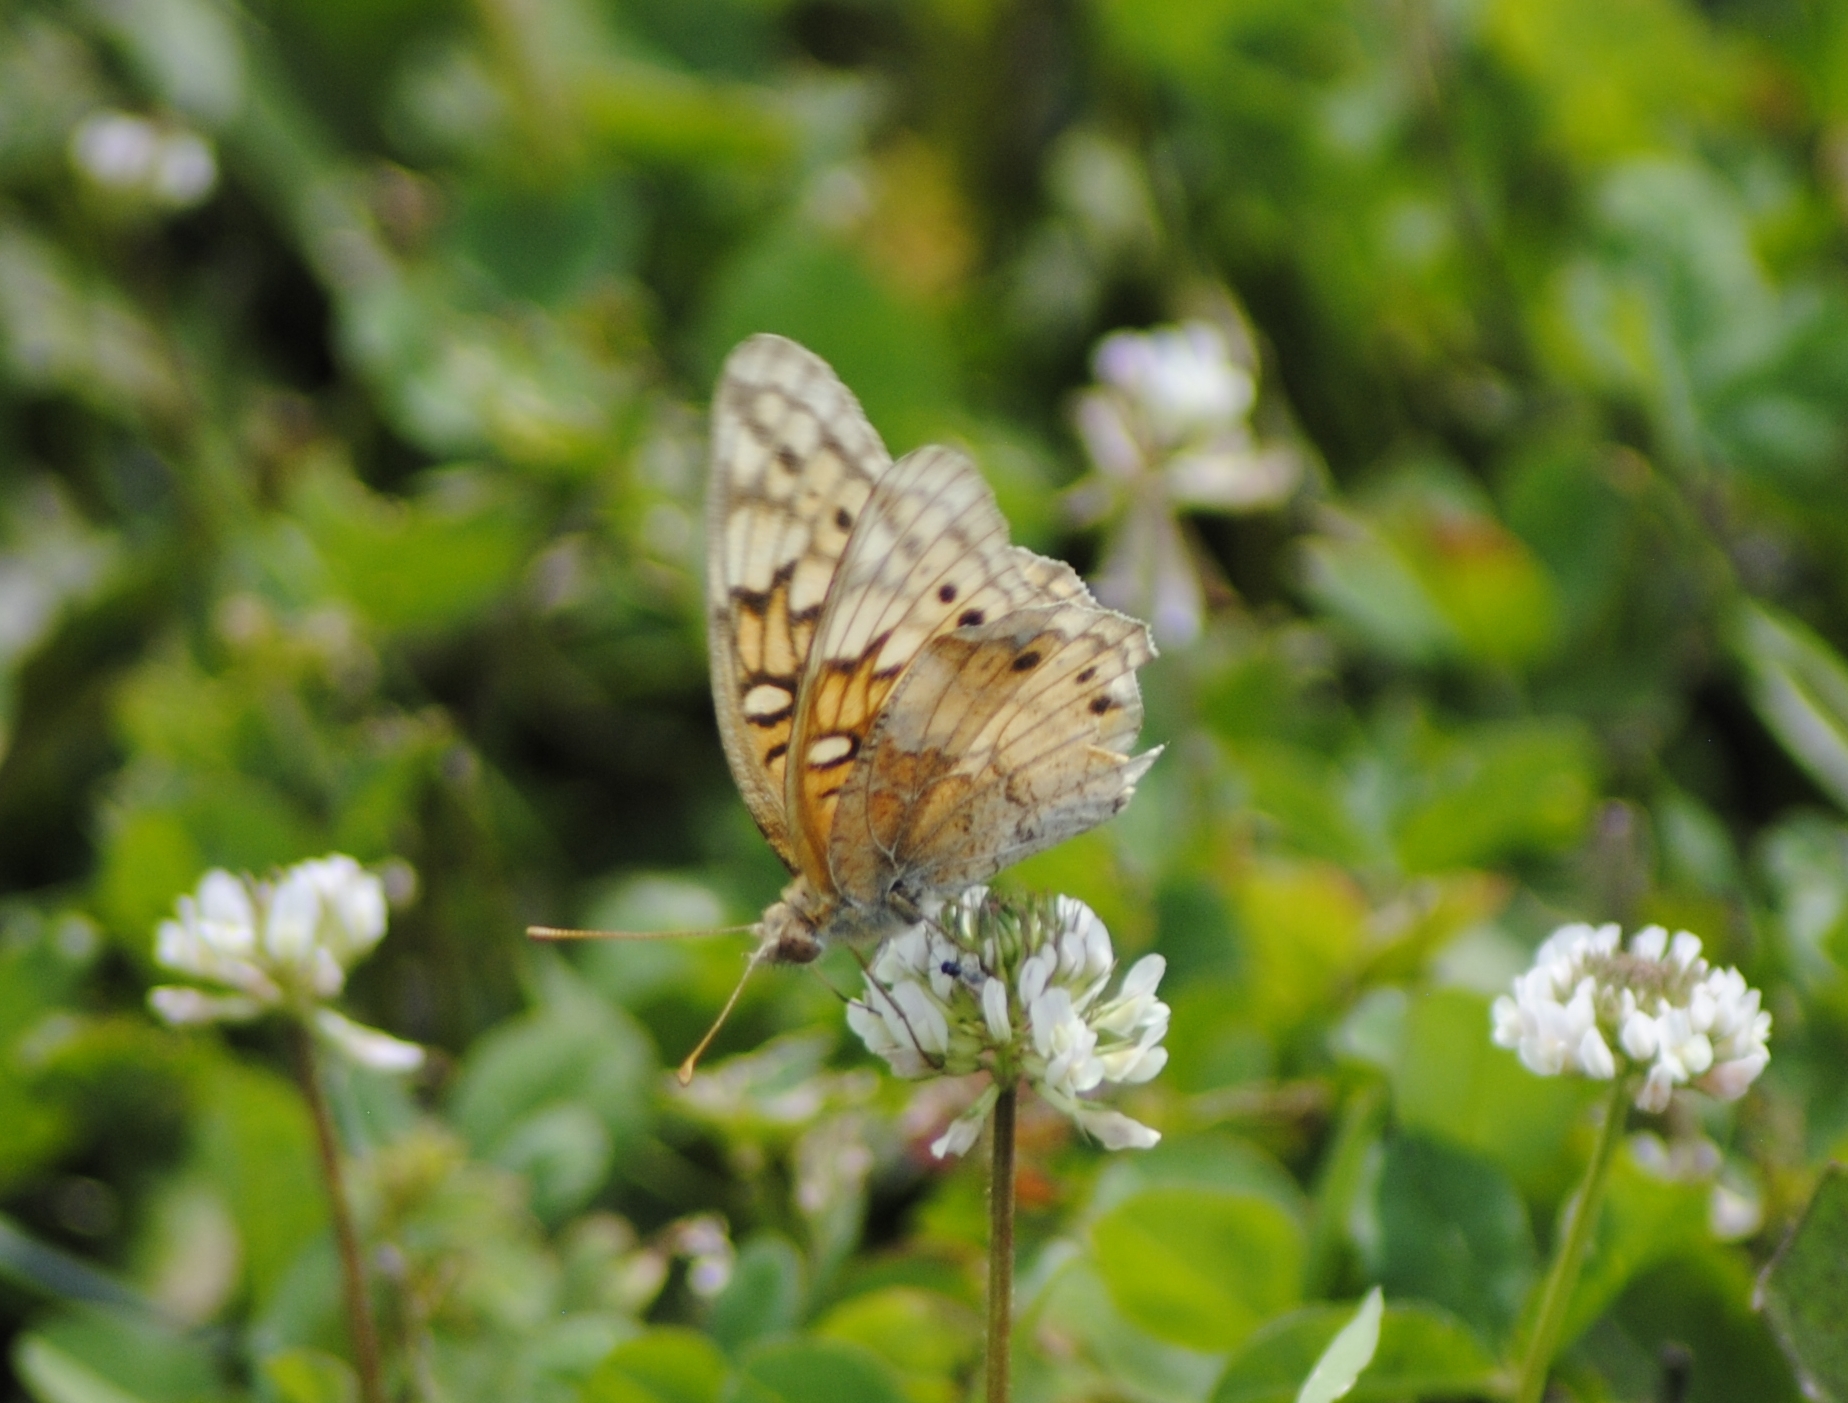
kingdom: Animalia
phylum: Arthropoda
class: Insecta
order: Lepidoptera
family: Nymphalidae
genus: Euptoieta
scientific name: Euptoieta claudia
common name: Variegated fritillary
